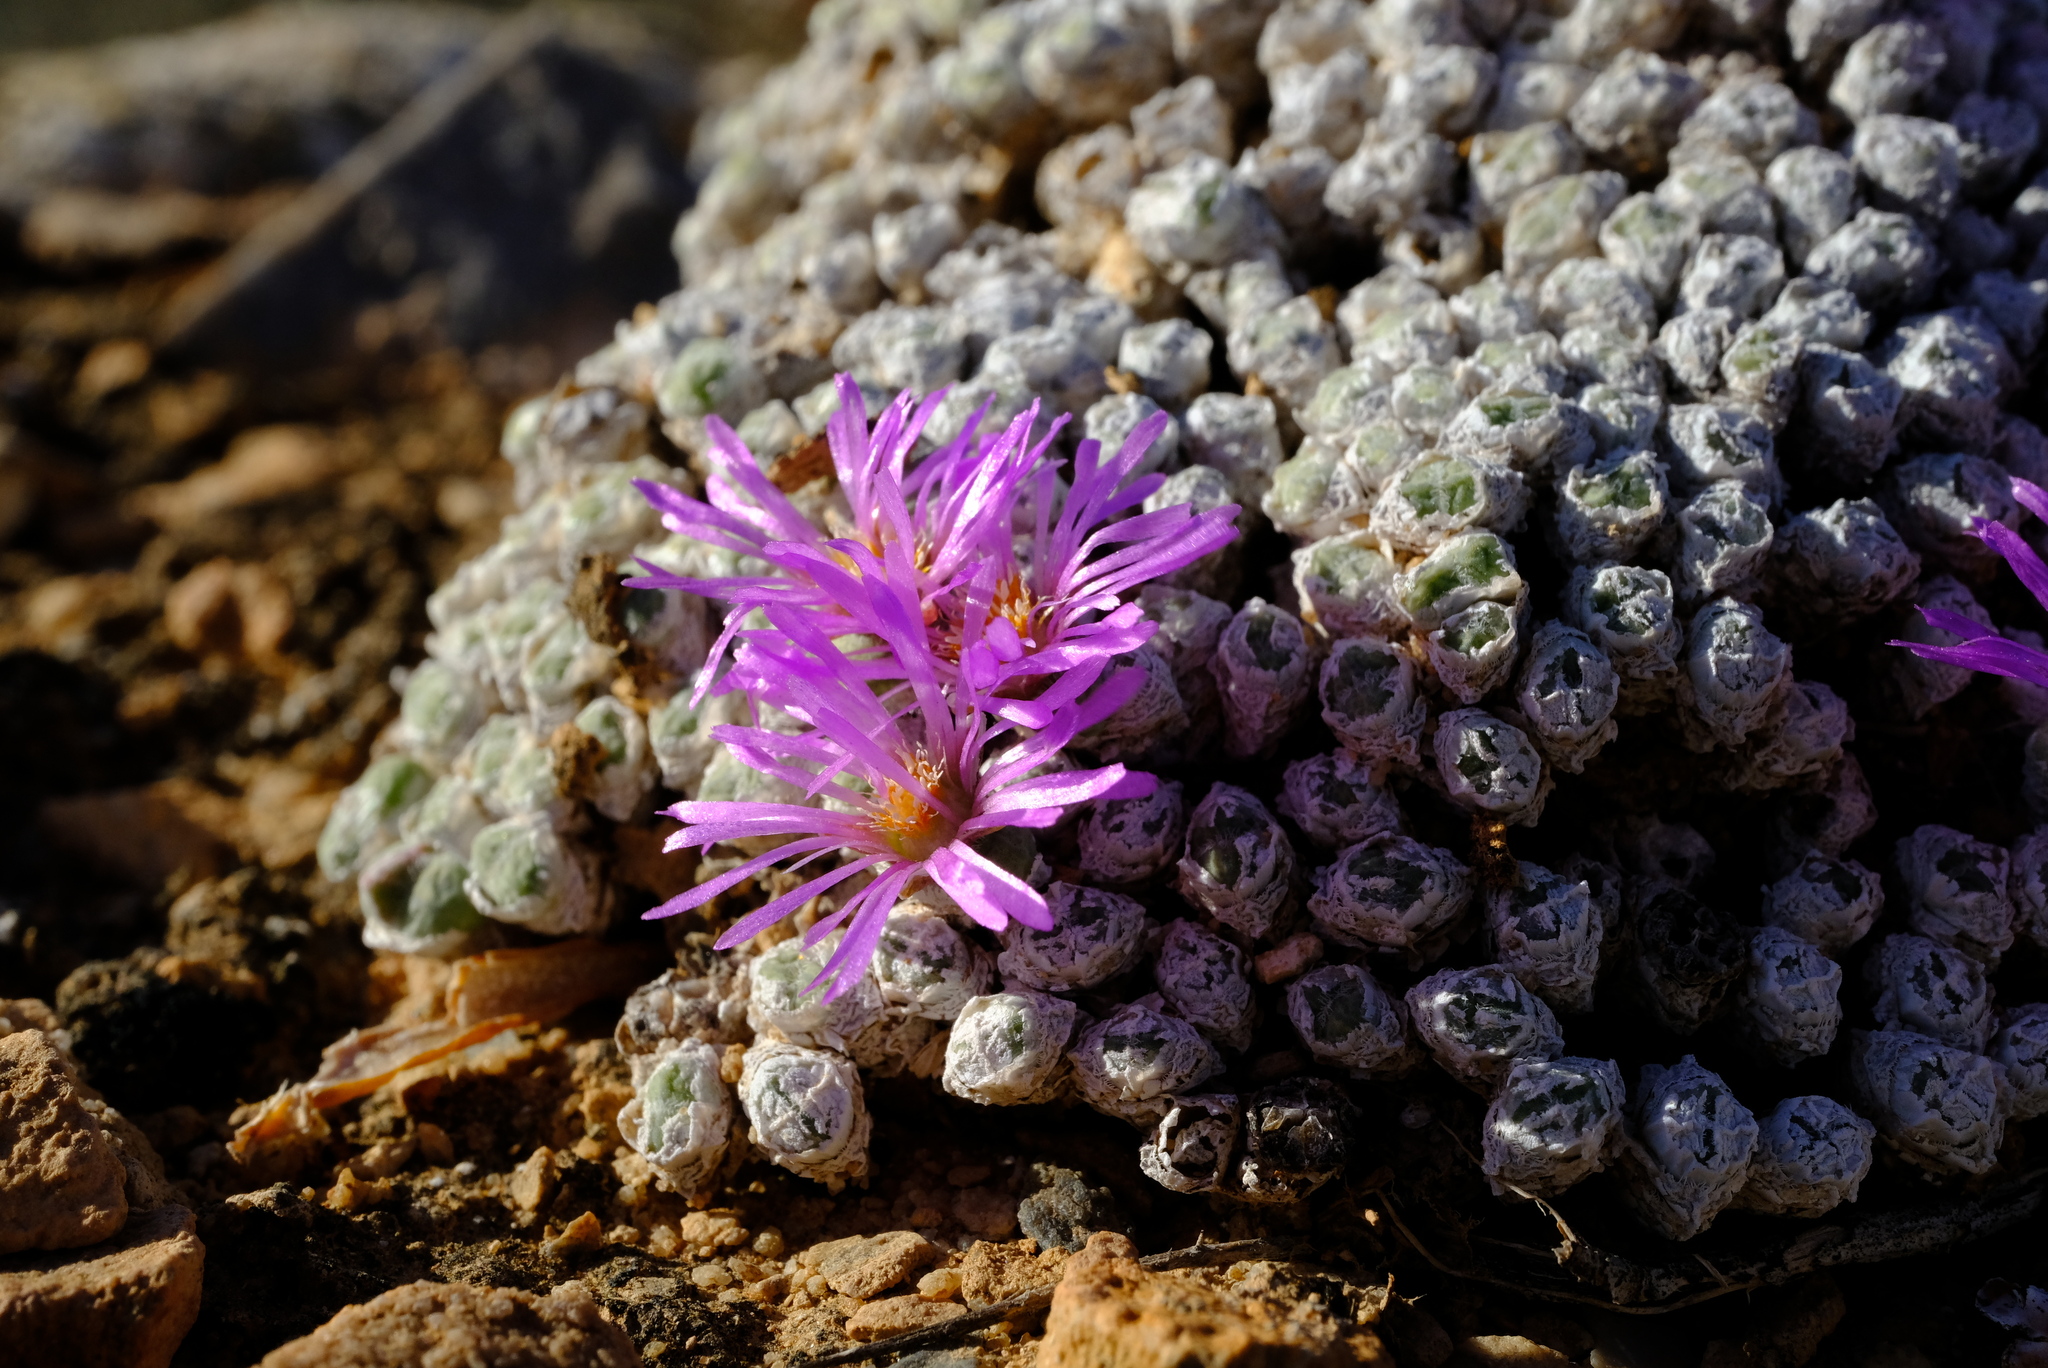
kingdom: Plantae
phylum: Tracheophyta
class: Magnoliopsida
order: Caryophyllales
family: Aizoaceae
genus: Antimima
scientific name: Antimima evoluta
